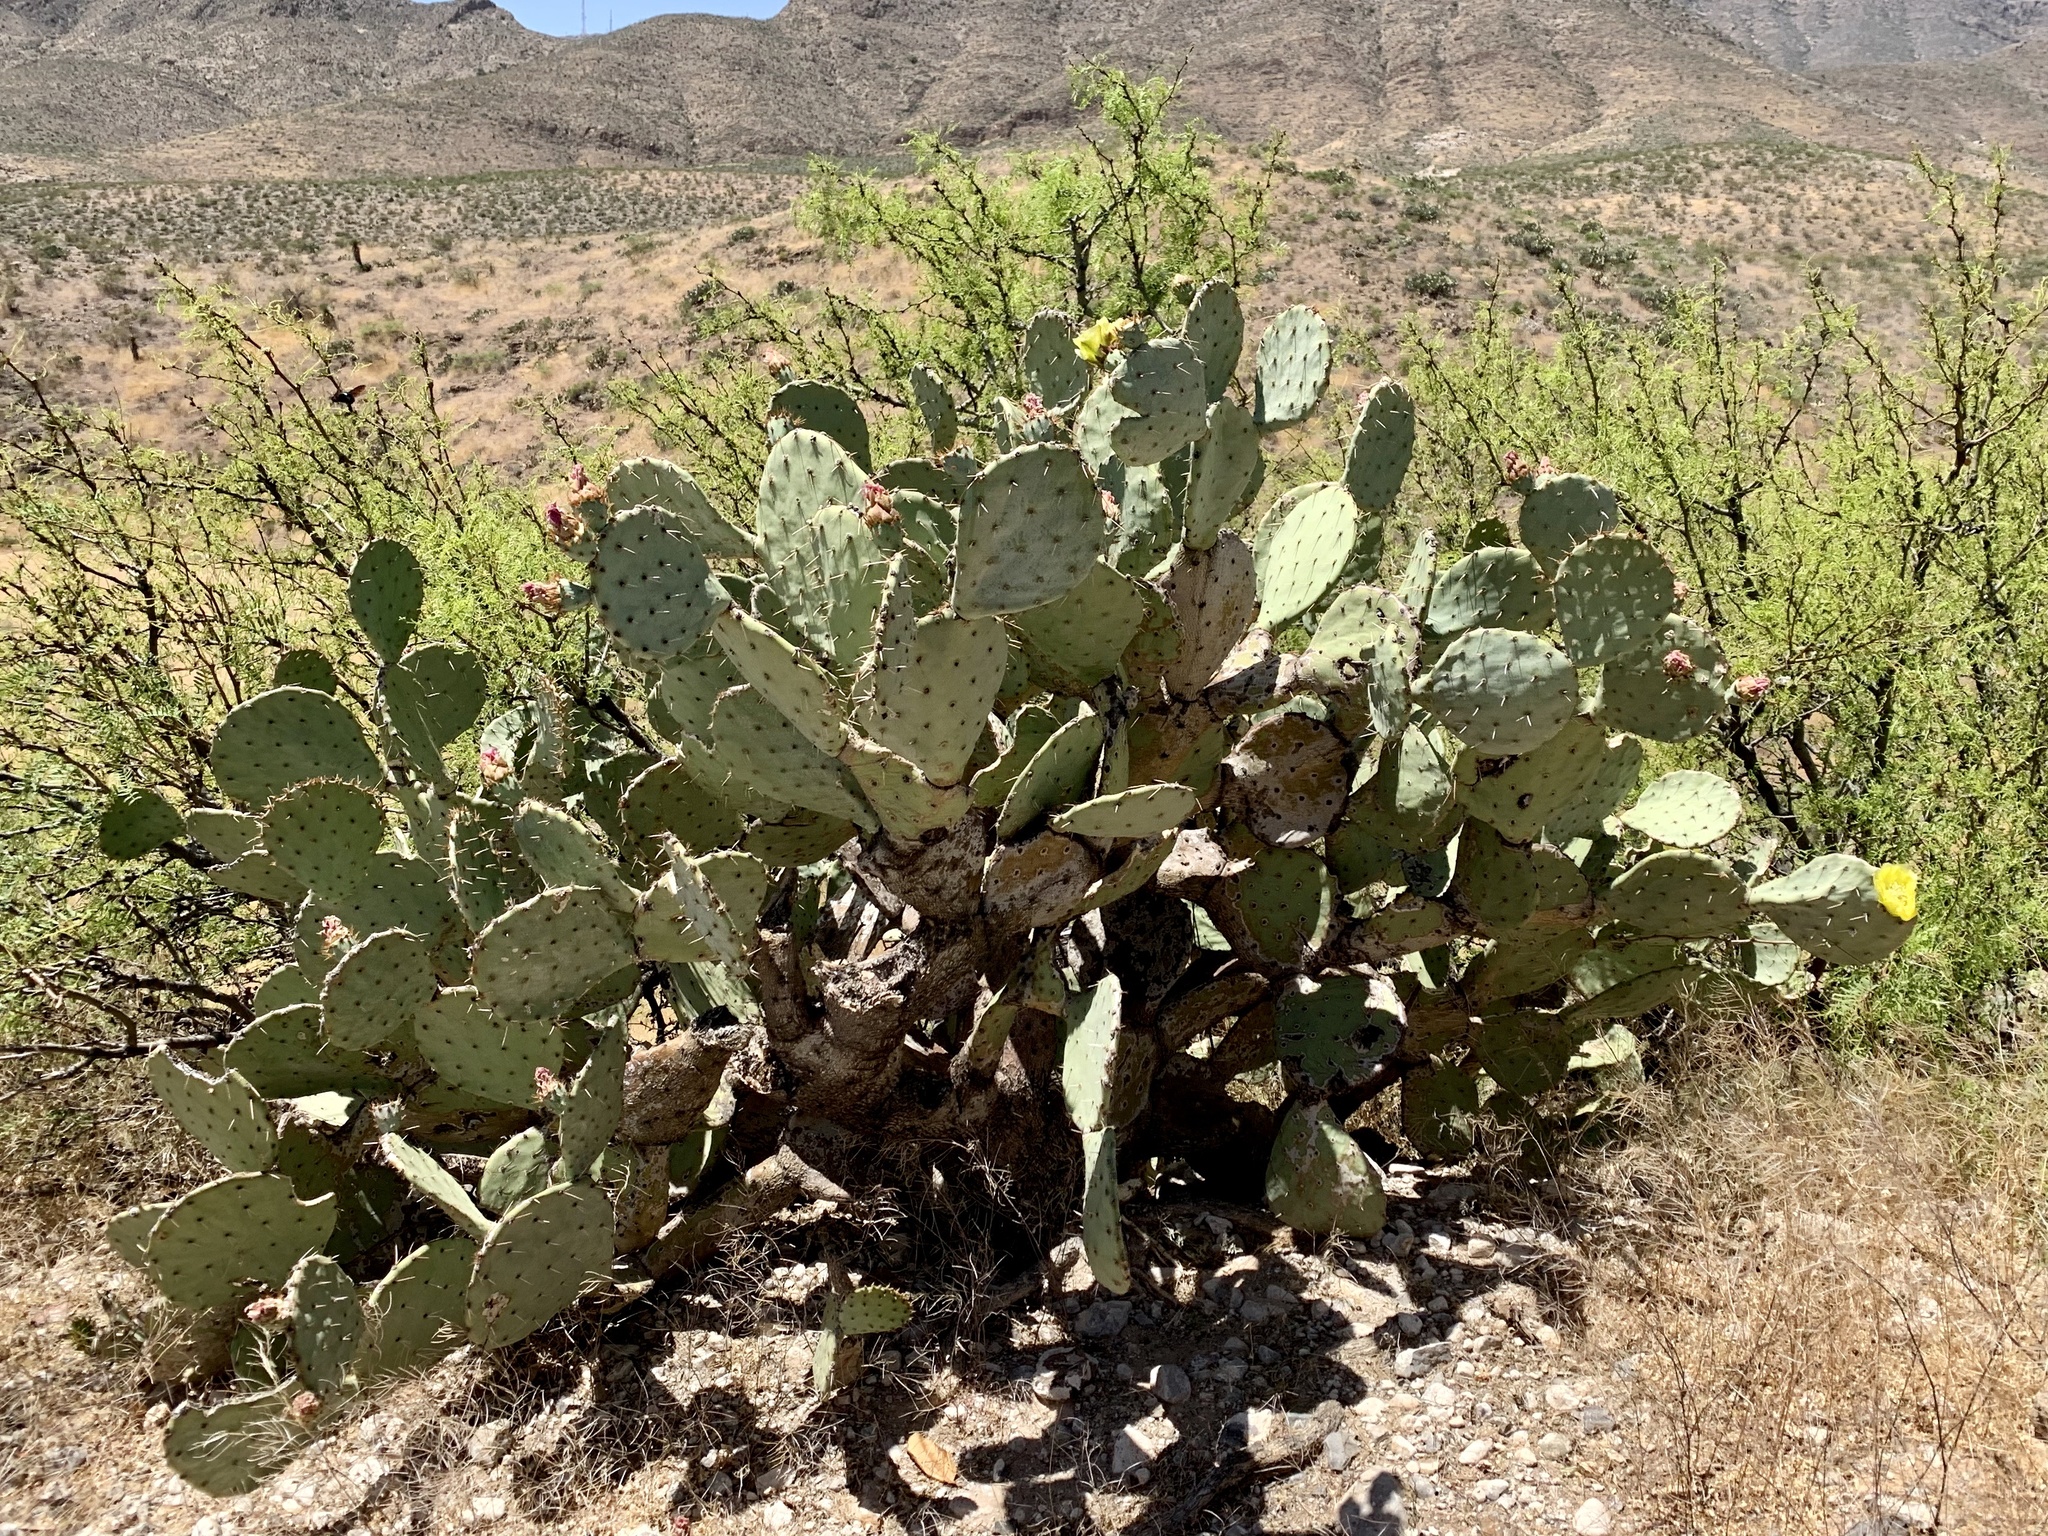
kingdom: Plantae
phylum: Tracheophyta
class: Magnoliopsida
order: Caryophyllales
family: Cactaceae
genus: Opuntia
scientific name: Opuntia engelmannii
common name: Cactus-apple
